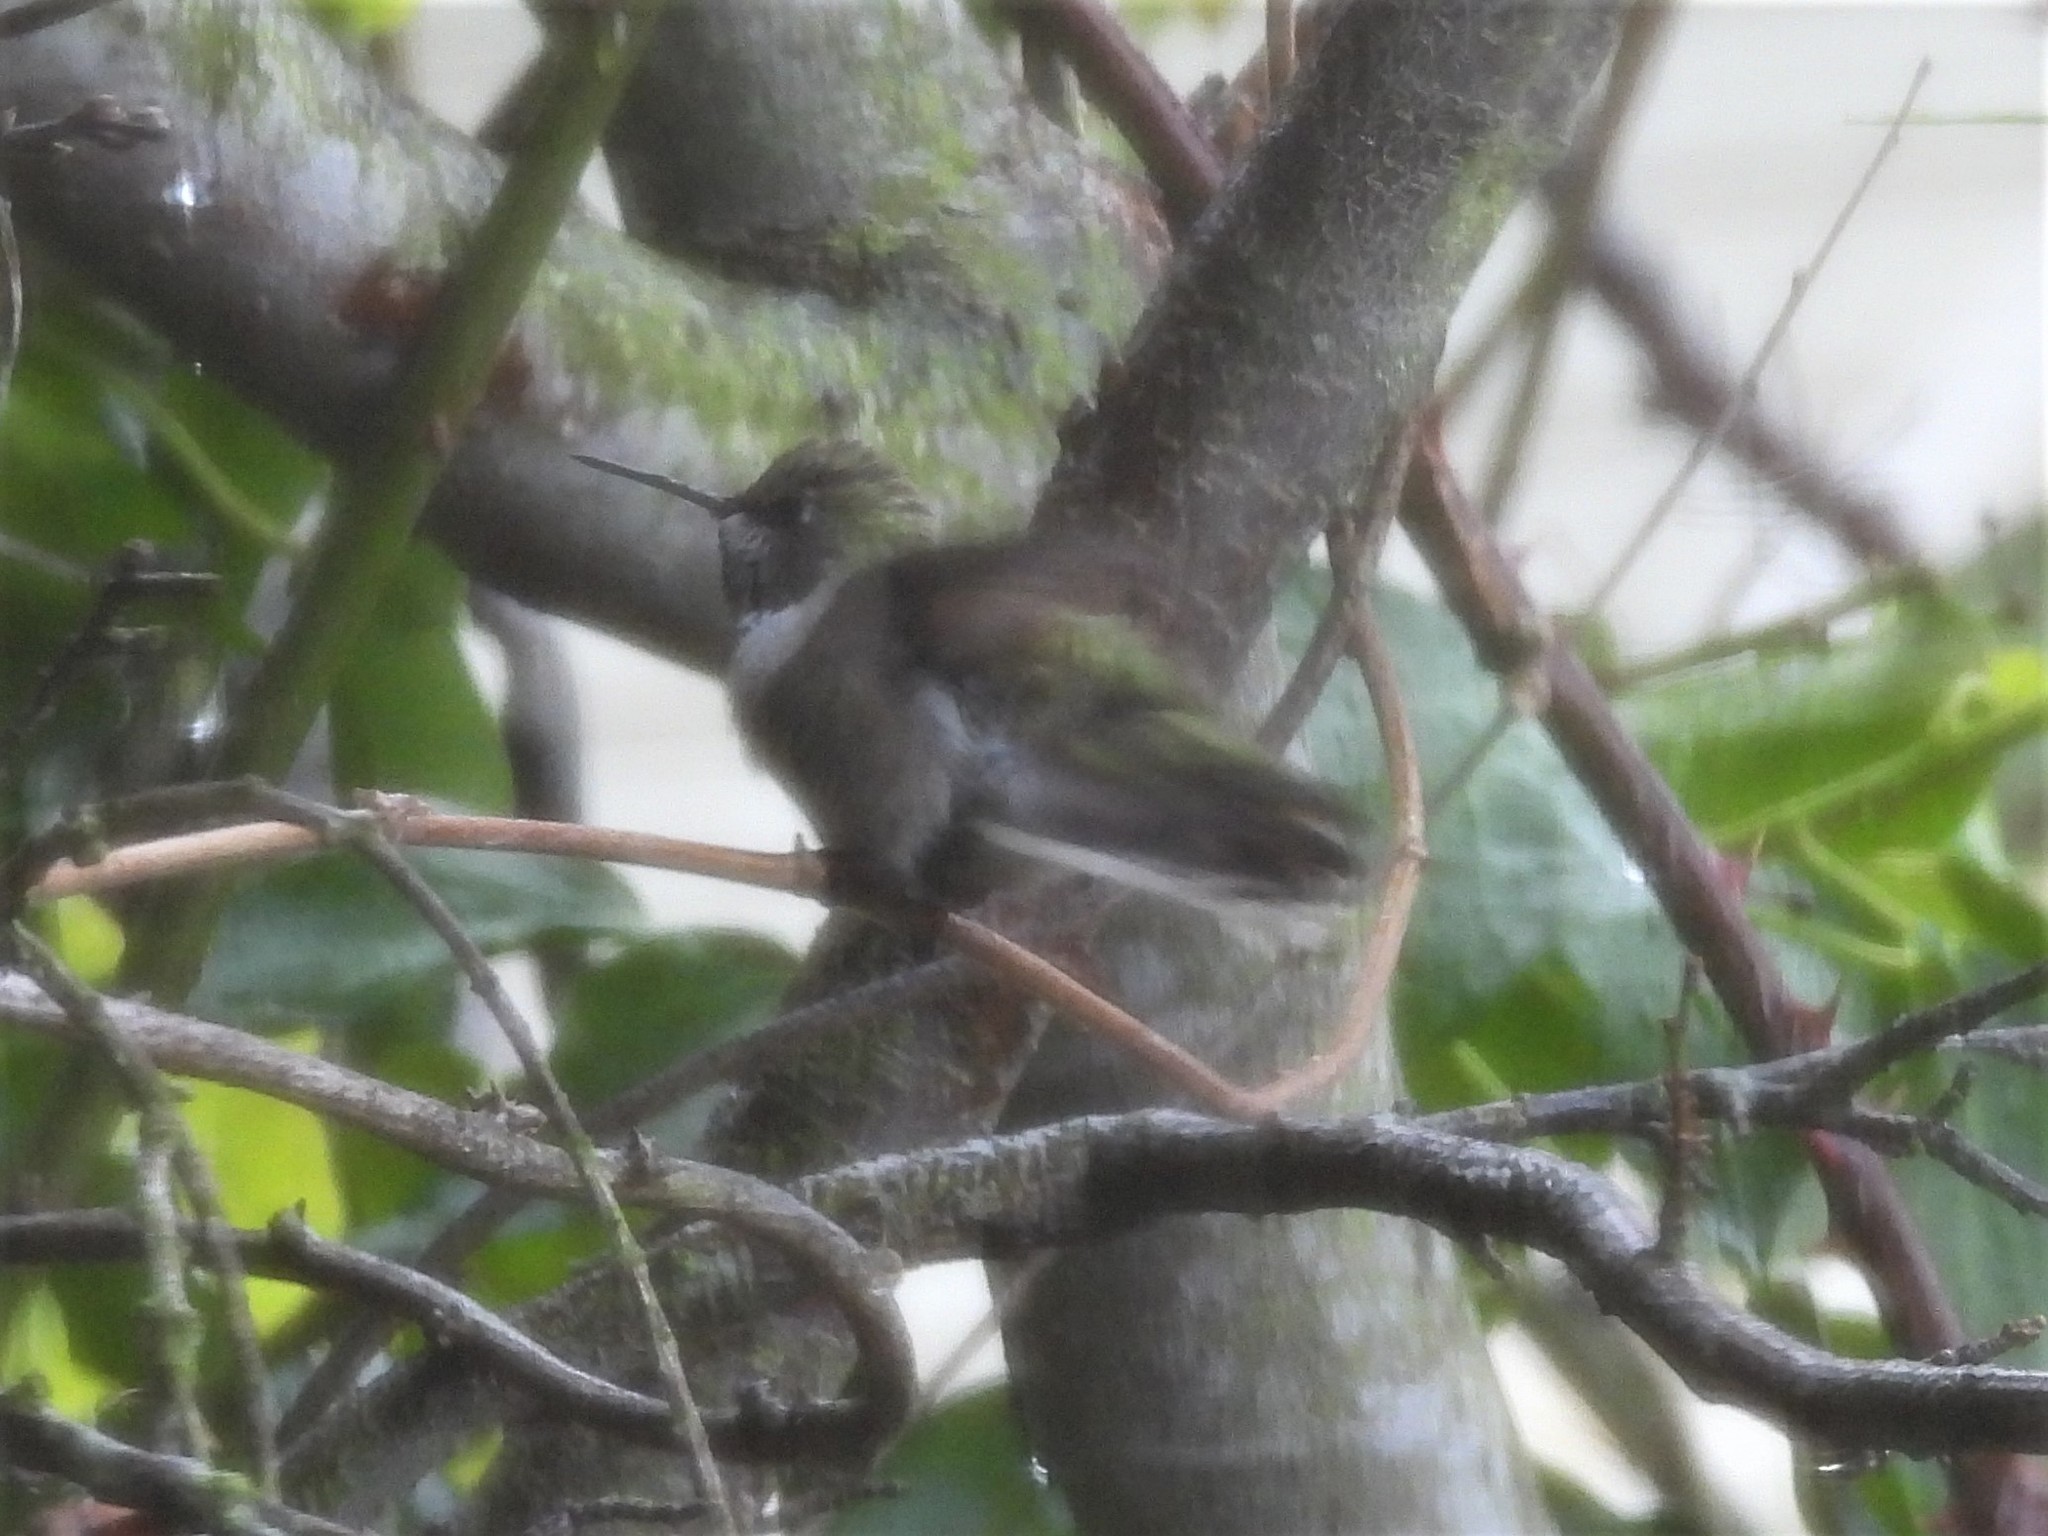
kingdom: Animalia
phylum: Chordata
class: Aves
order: Apodiformes
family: Trochilidae
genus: Calypte
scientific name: Calypte anna
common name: Anna's hummingbird
